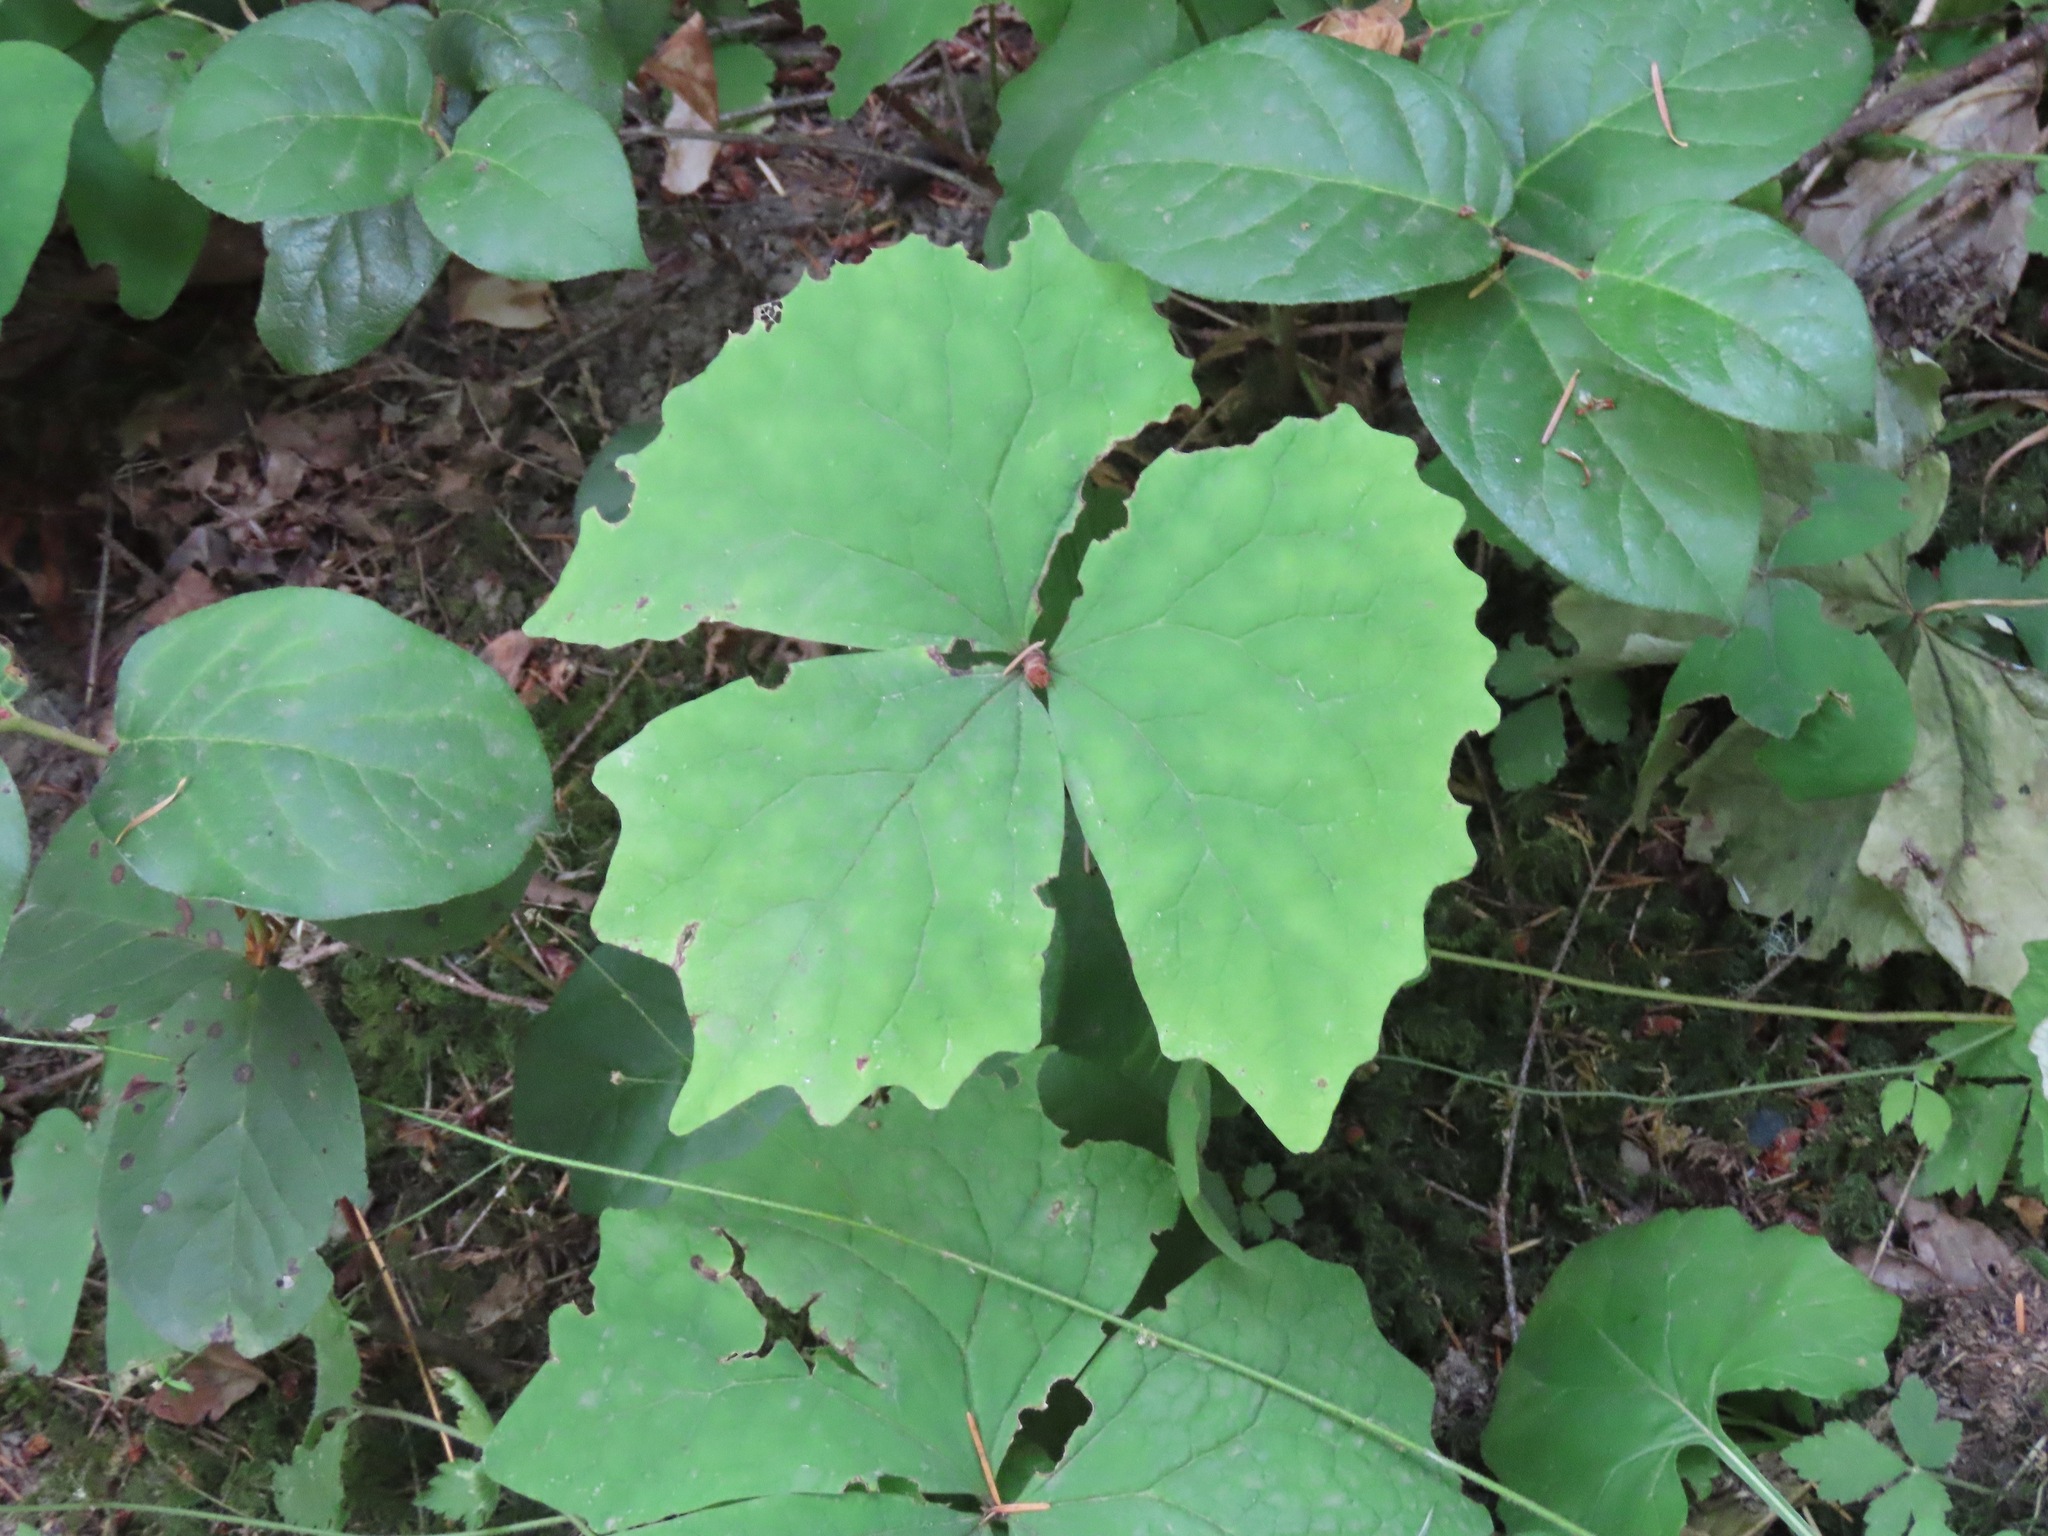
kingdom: Plantae
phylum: Tracheophyta
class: Magnoliopsida
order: Ranunculales
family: Berberidaceae
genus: Achlys
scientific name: Achlys triphylla
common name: Vanilla-leaf
